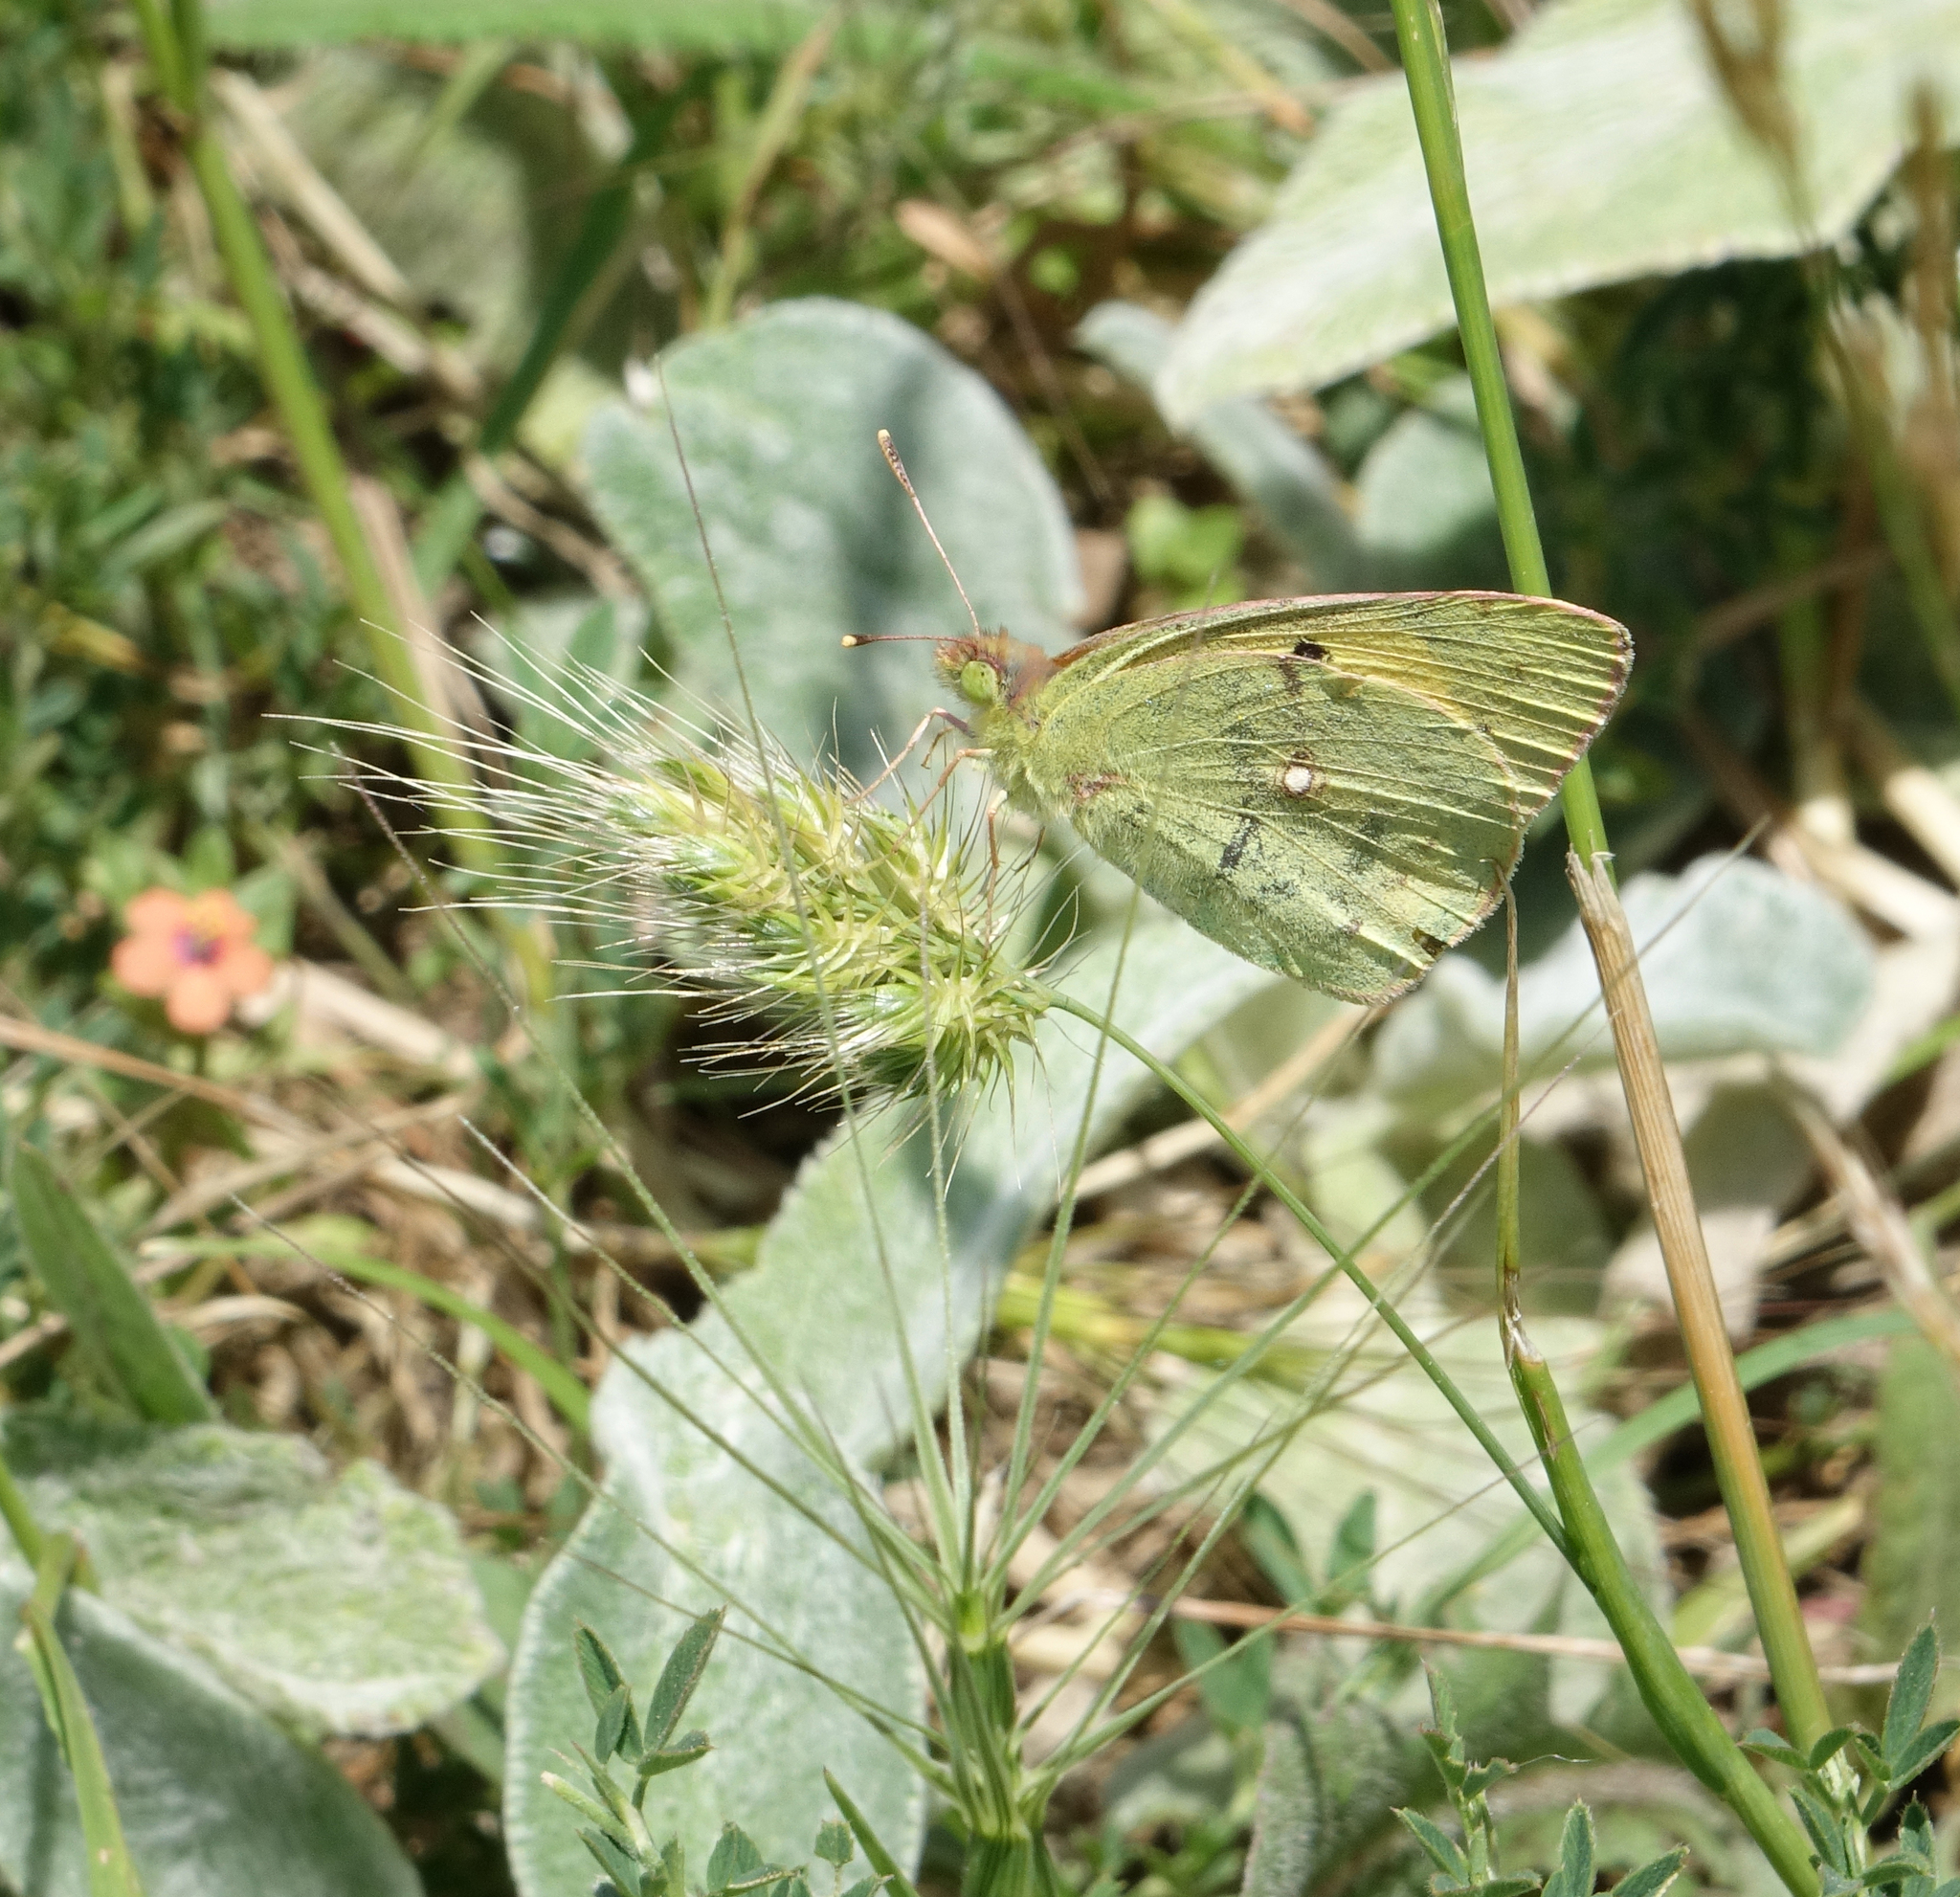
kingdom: Plantae
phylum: Tracheophyta
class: Liliopsida
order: Poales
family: Poaceae
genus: Cynosurus
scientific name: Cynosurus echinatus
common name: Rough dog's-tail
